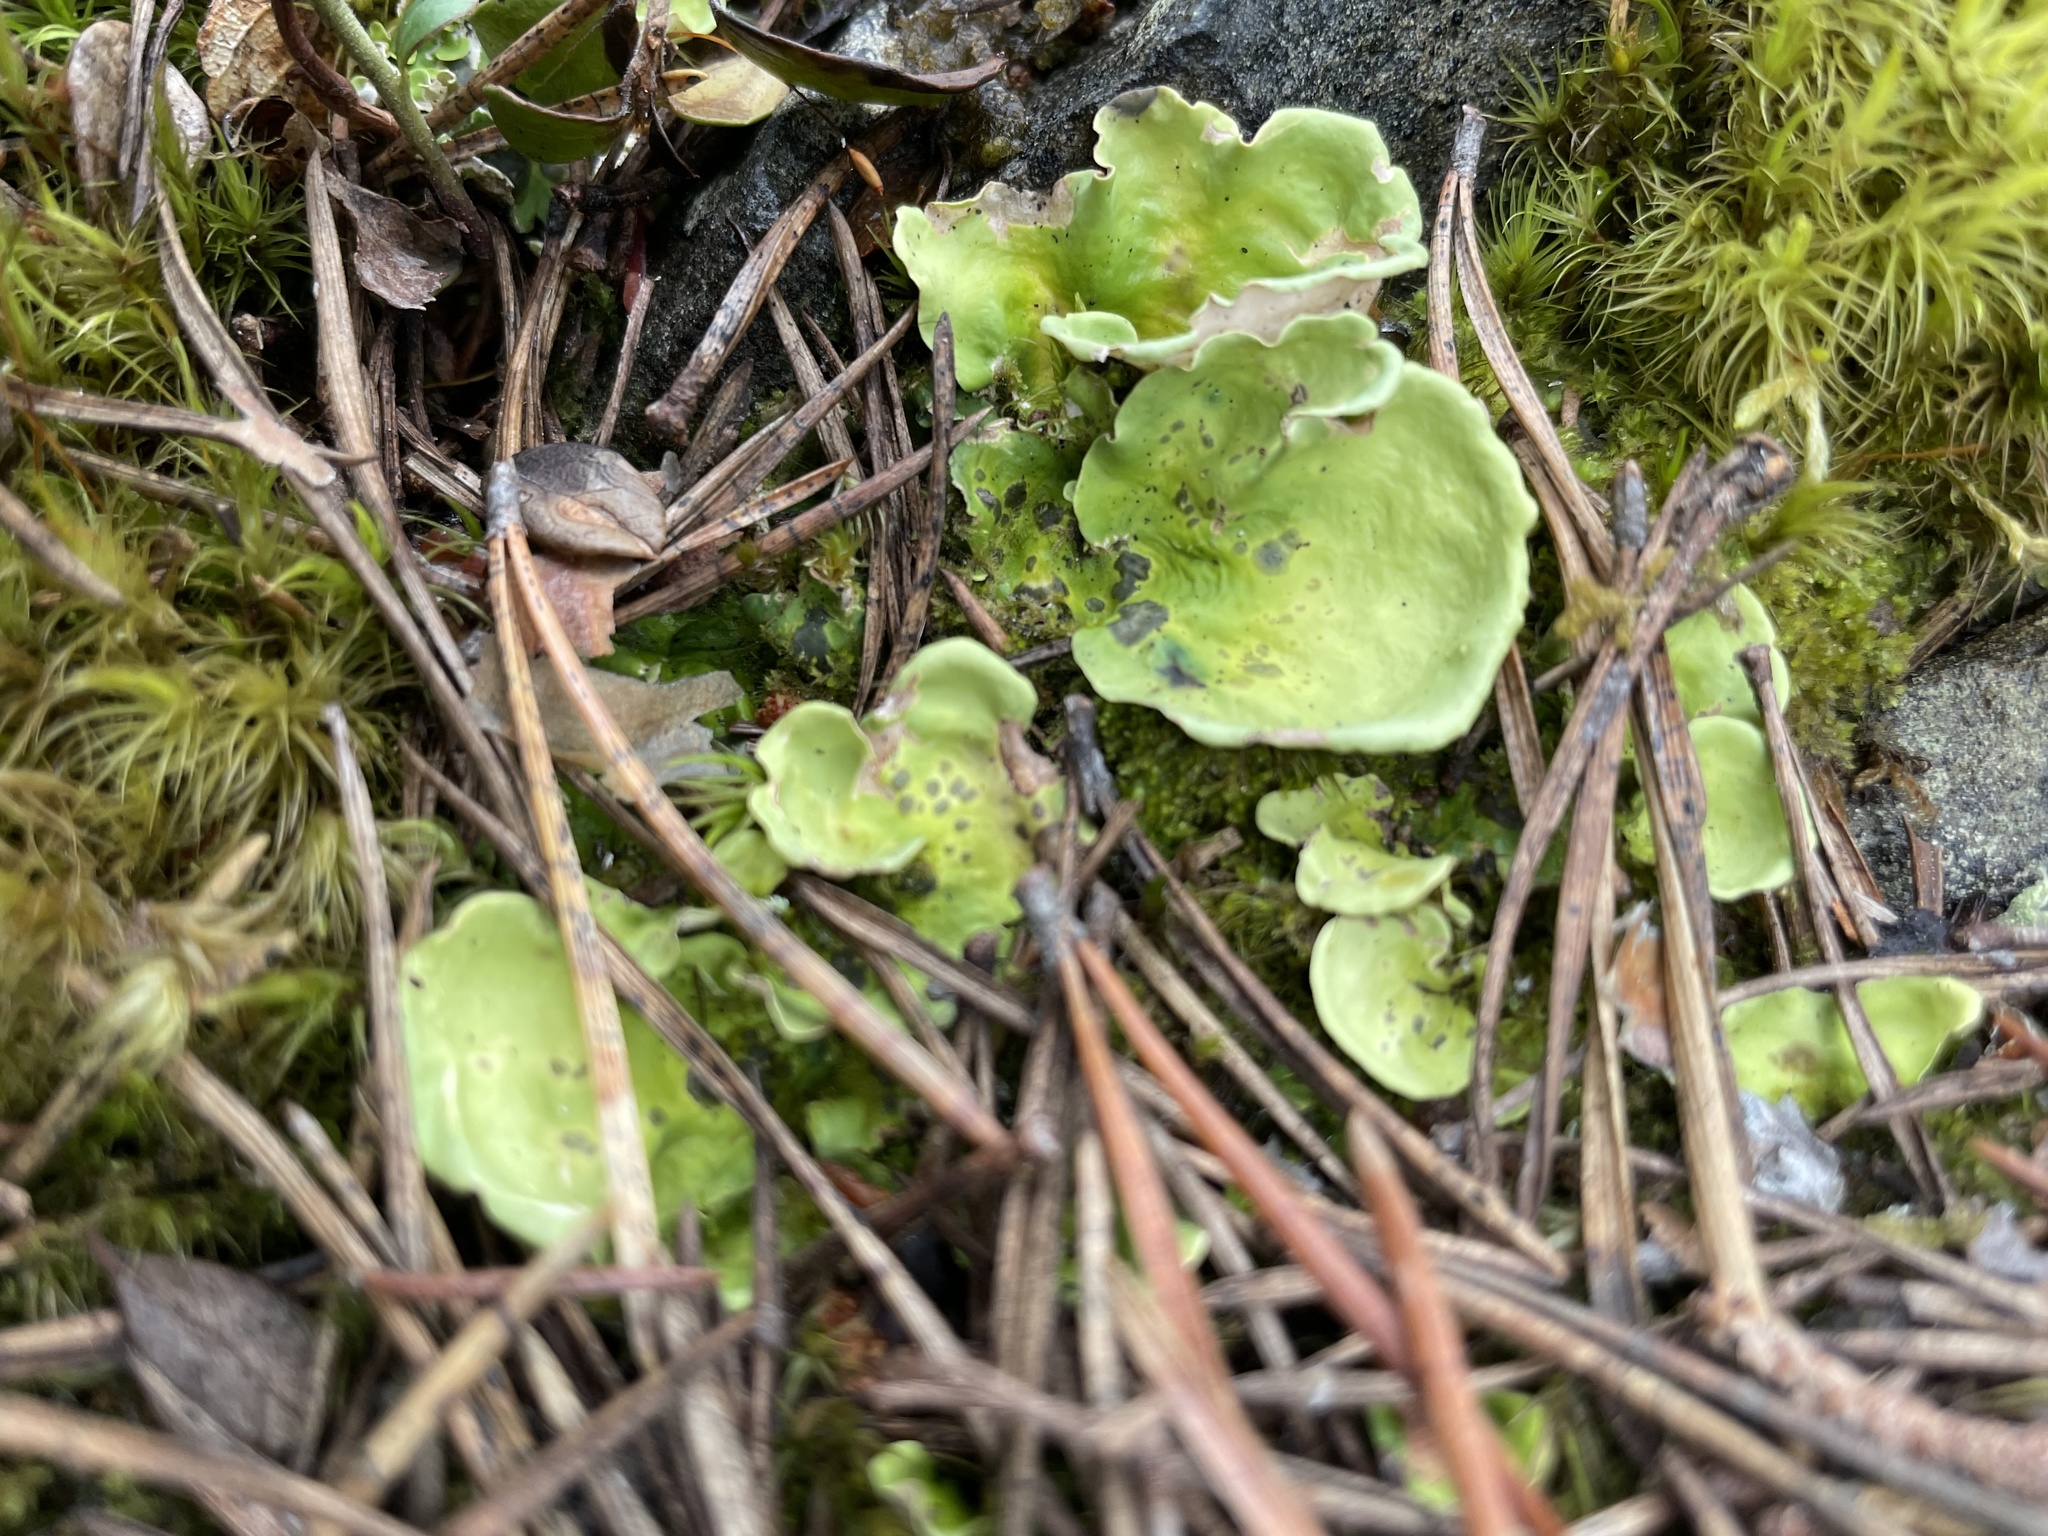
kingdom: Fungi
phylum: Ascomycota
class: Lecanoromycetes
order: Peltigerales
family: Nephromataceae
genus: Nephroma
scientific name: Nephroma arcticum
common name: Arctic kidney-lichen
